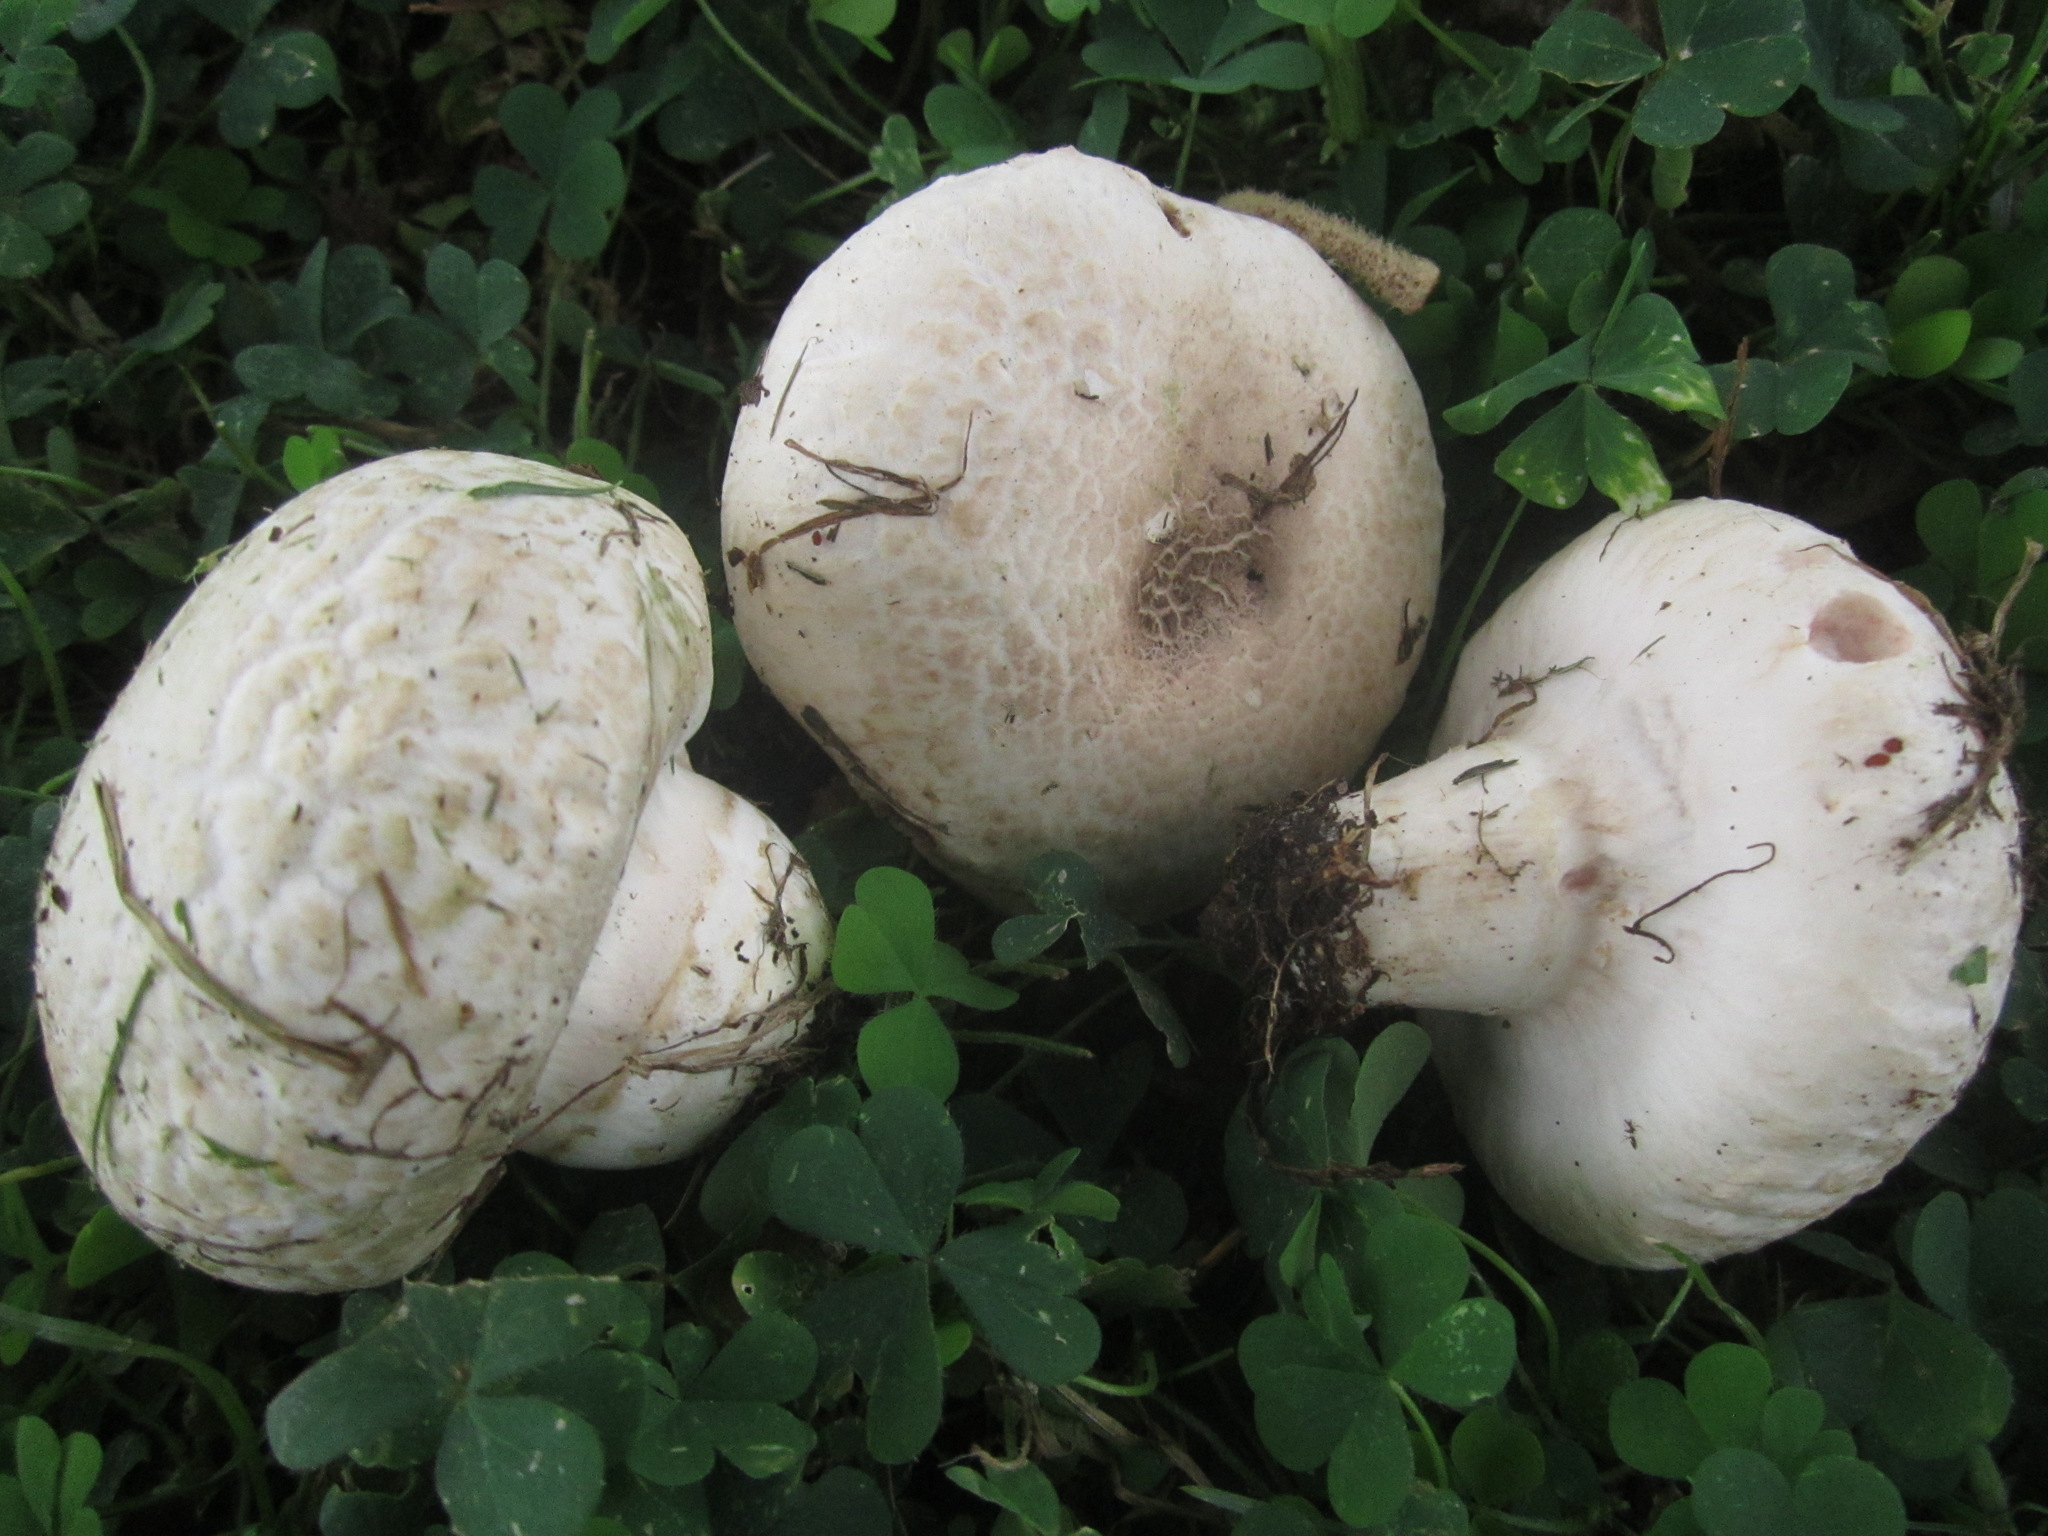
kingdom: Fungi
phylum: Basidiomycota
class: Agaricomycetes
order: Agaricales
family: Agaricaceae
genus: Agaricus
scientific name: Agaricus bernardii
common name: Salty mushroom
